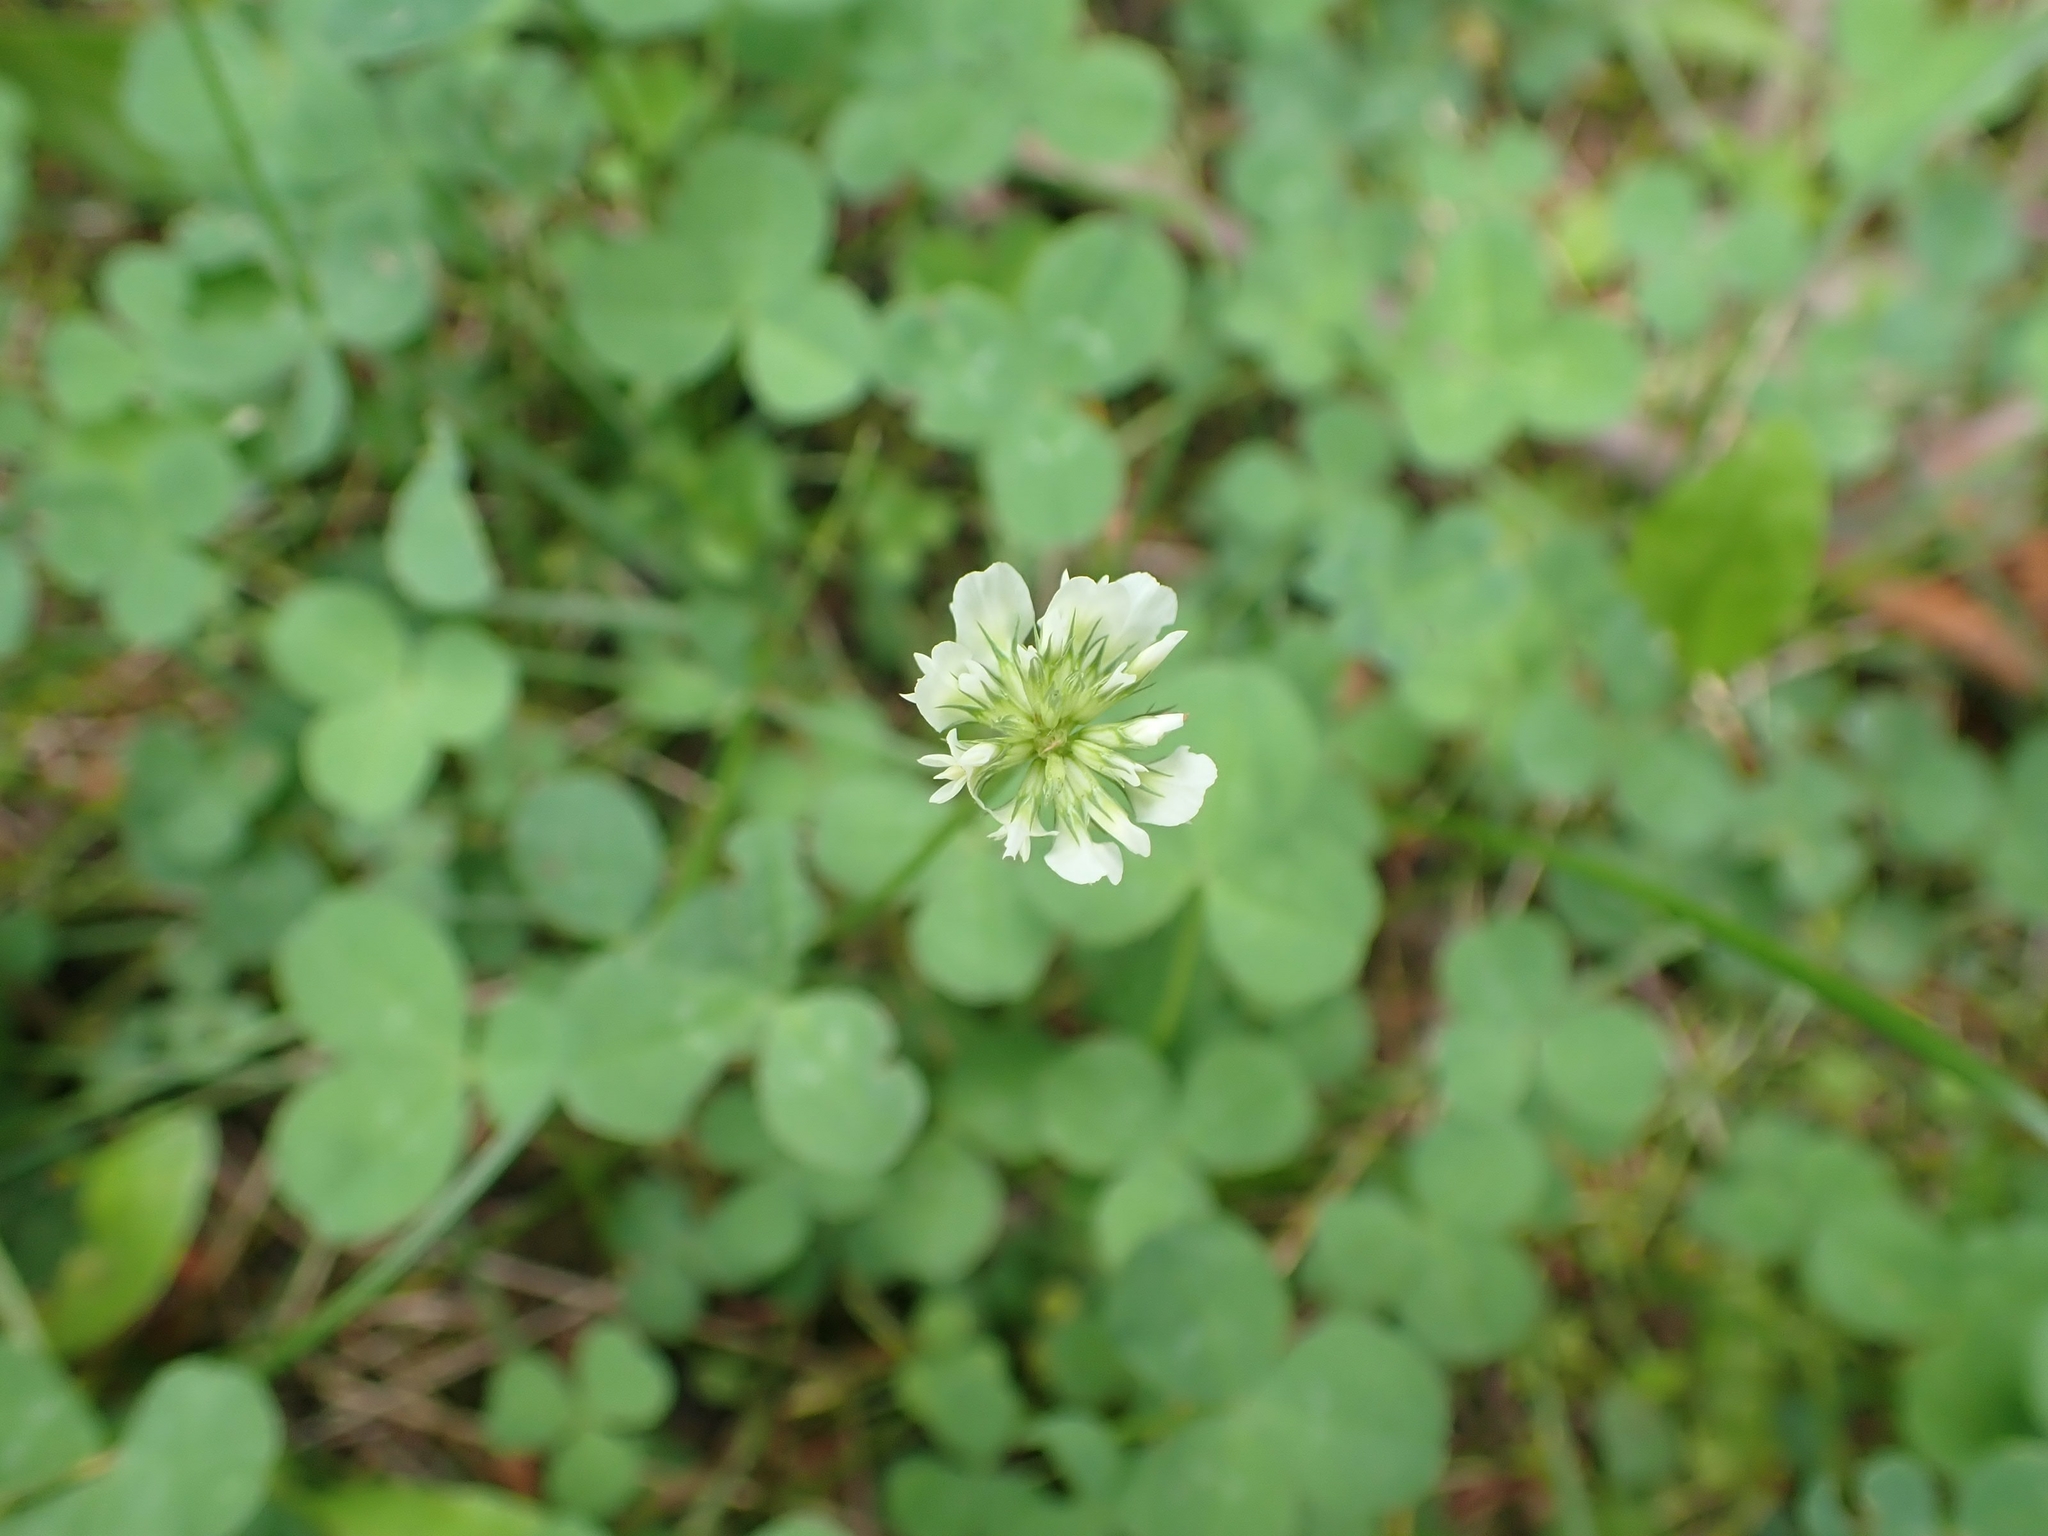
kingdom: Plantae
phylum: Tracheophyta
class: Magnoliopsida
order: Fabales
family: Fabaceae
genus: Trifolium
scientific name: Trifolium repens
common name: White clover
